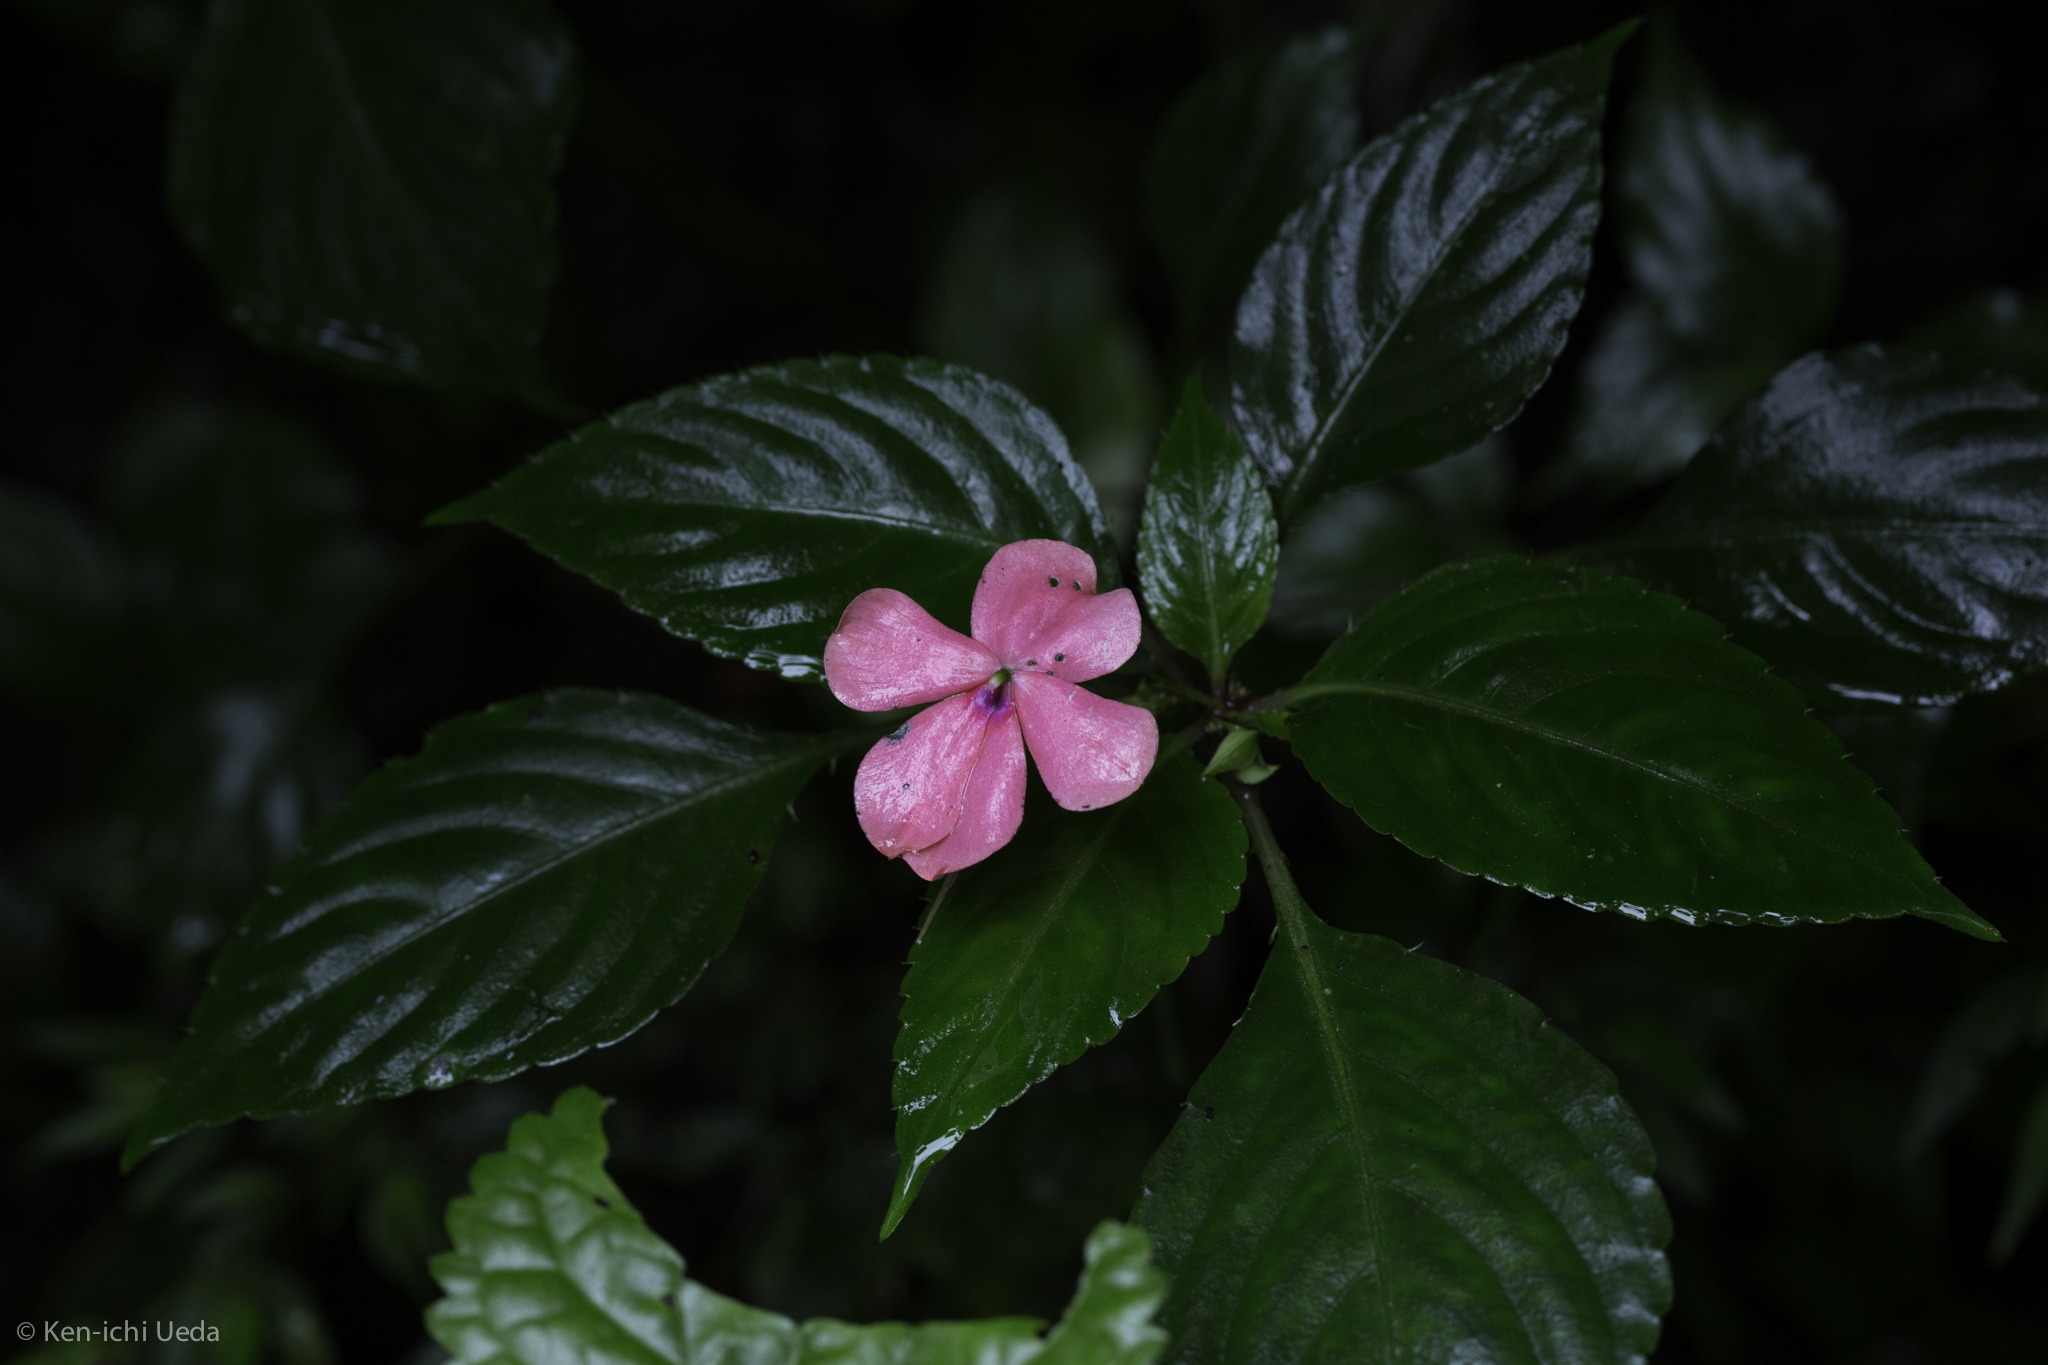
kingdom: Plantae
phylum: Tracheophyta
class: Magnoliopsida
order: Ericales
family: Balsaminaceae
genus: Impatiens
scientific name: Impatiens walleriana
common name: Buzzy lizzy
